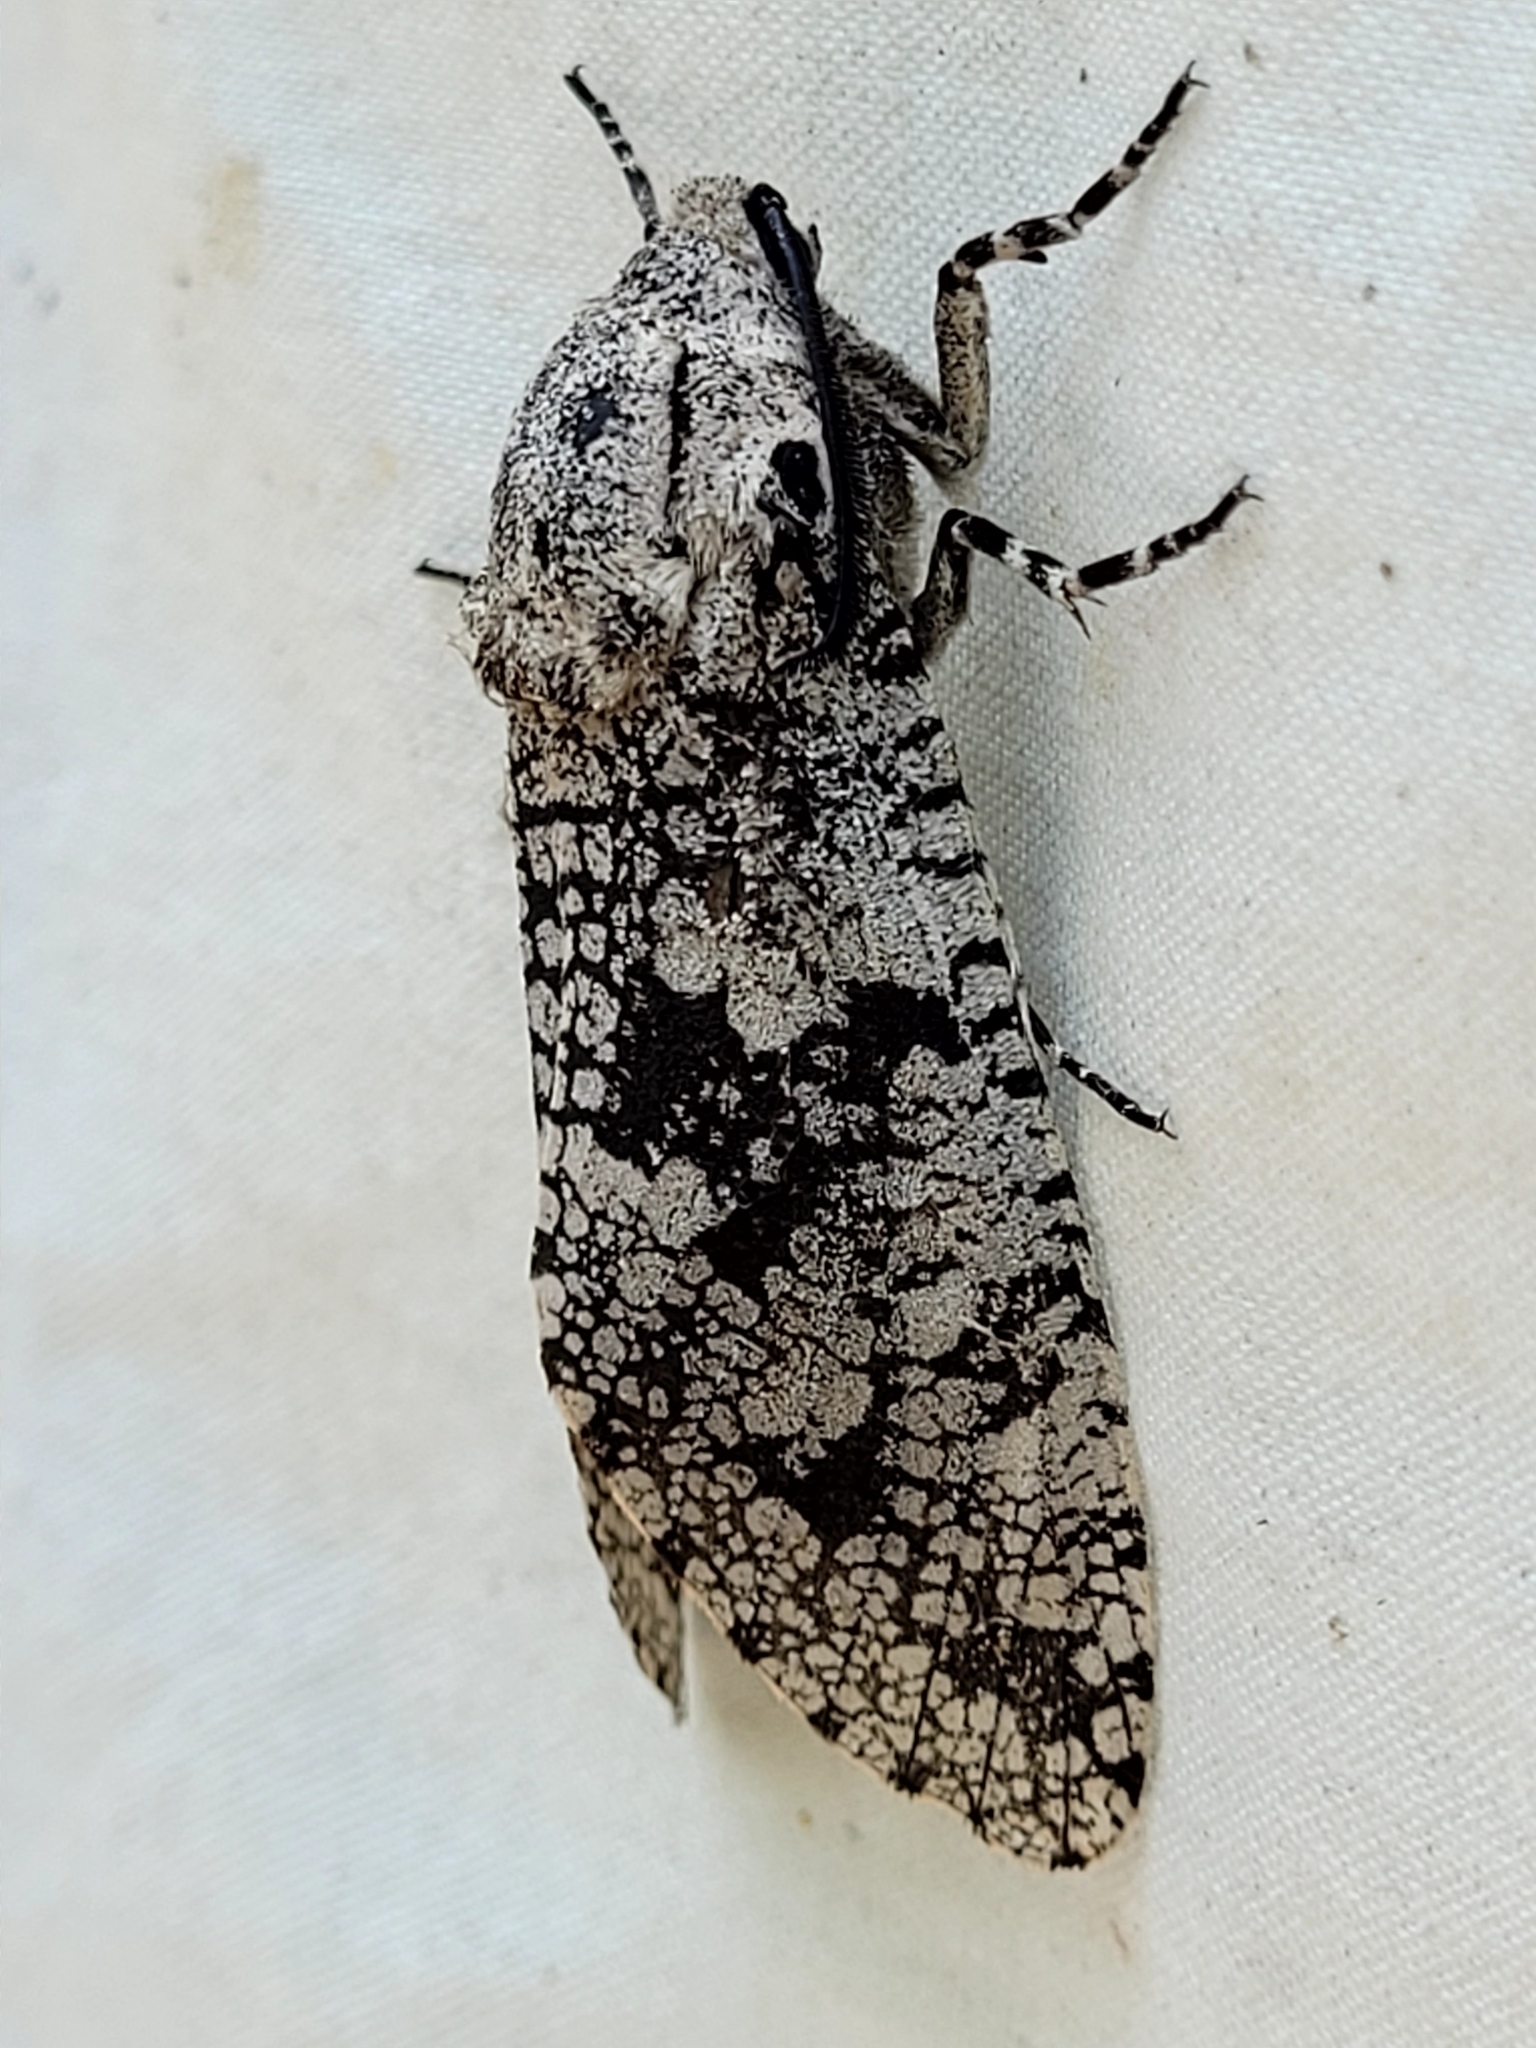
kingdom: Animalia
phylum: Arthropoda
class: Insecta
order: Lepidoptera
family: Cossidae
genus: Prionoxystus
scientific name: Prionoxystus robiniae
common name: Carpenterworm
